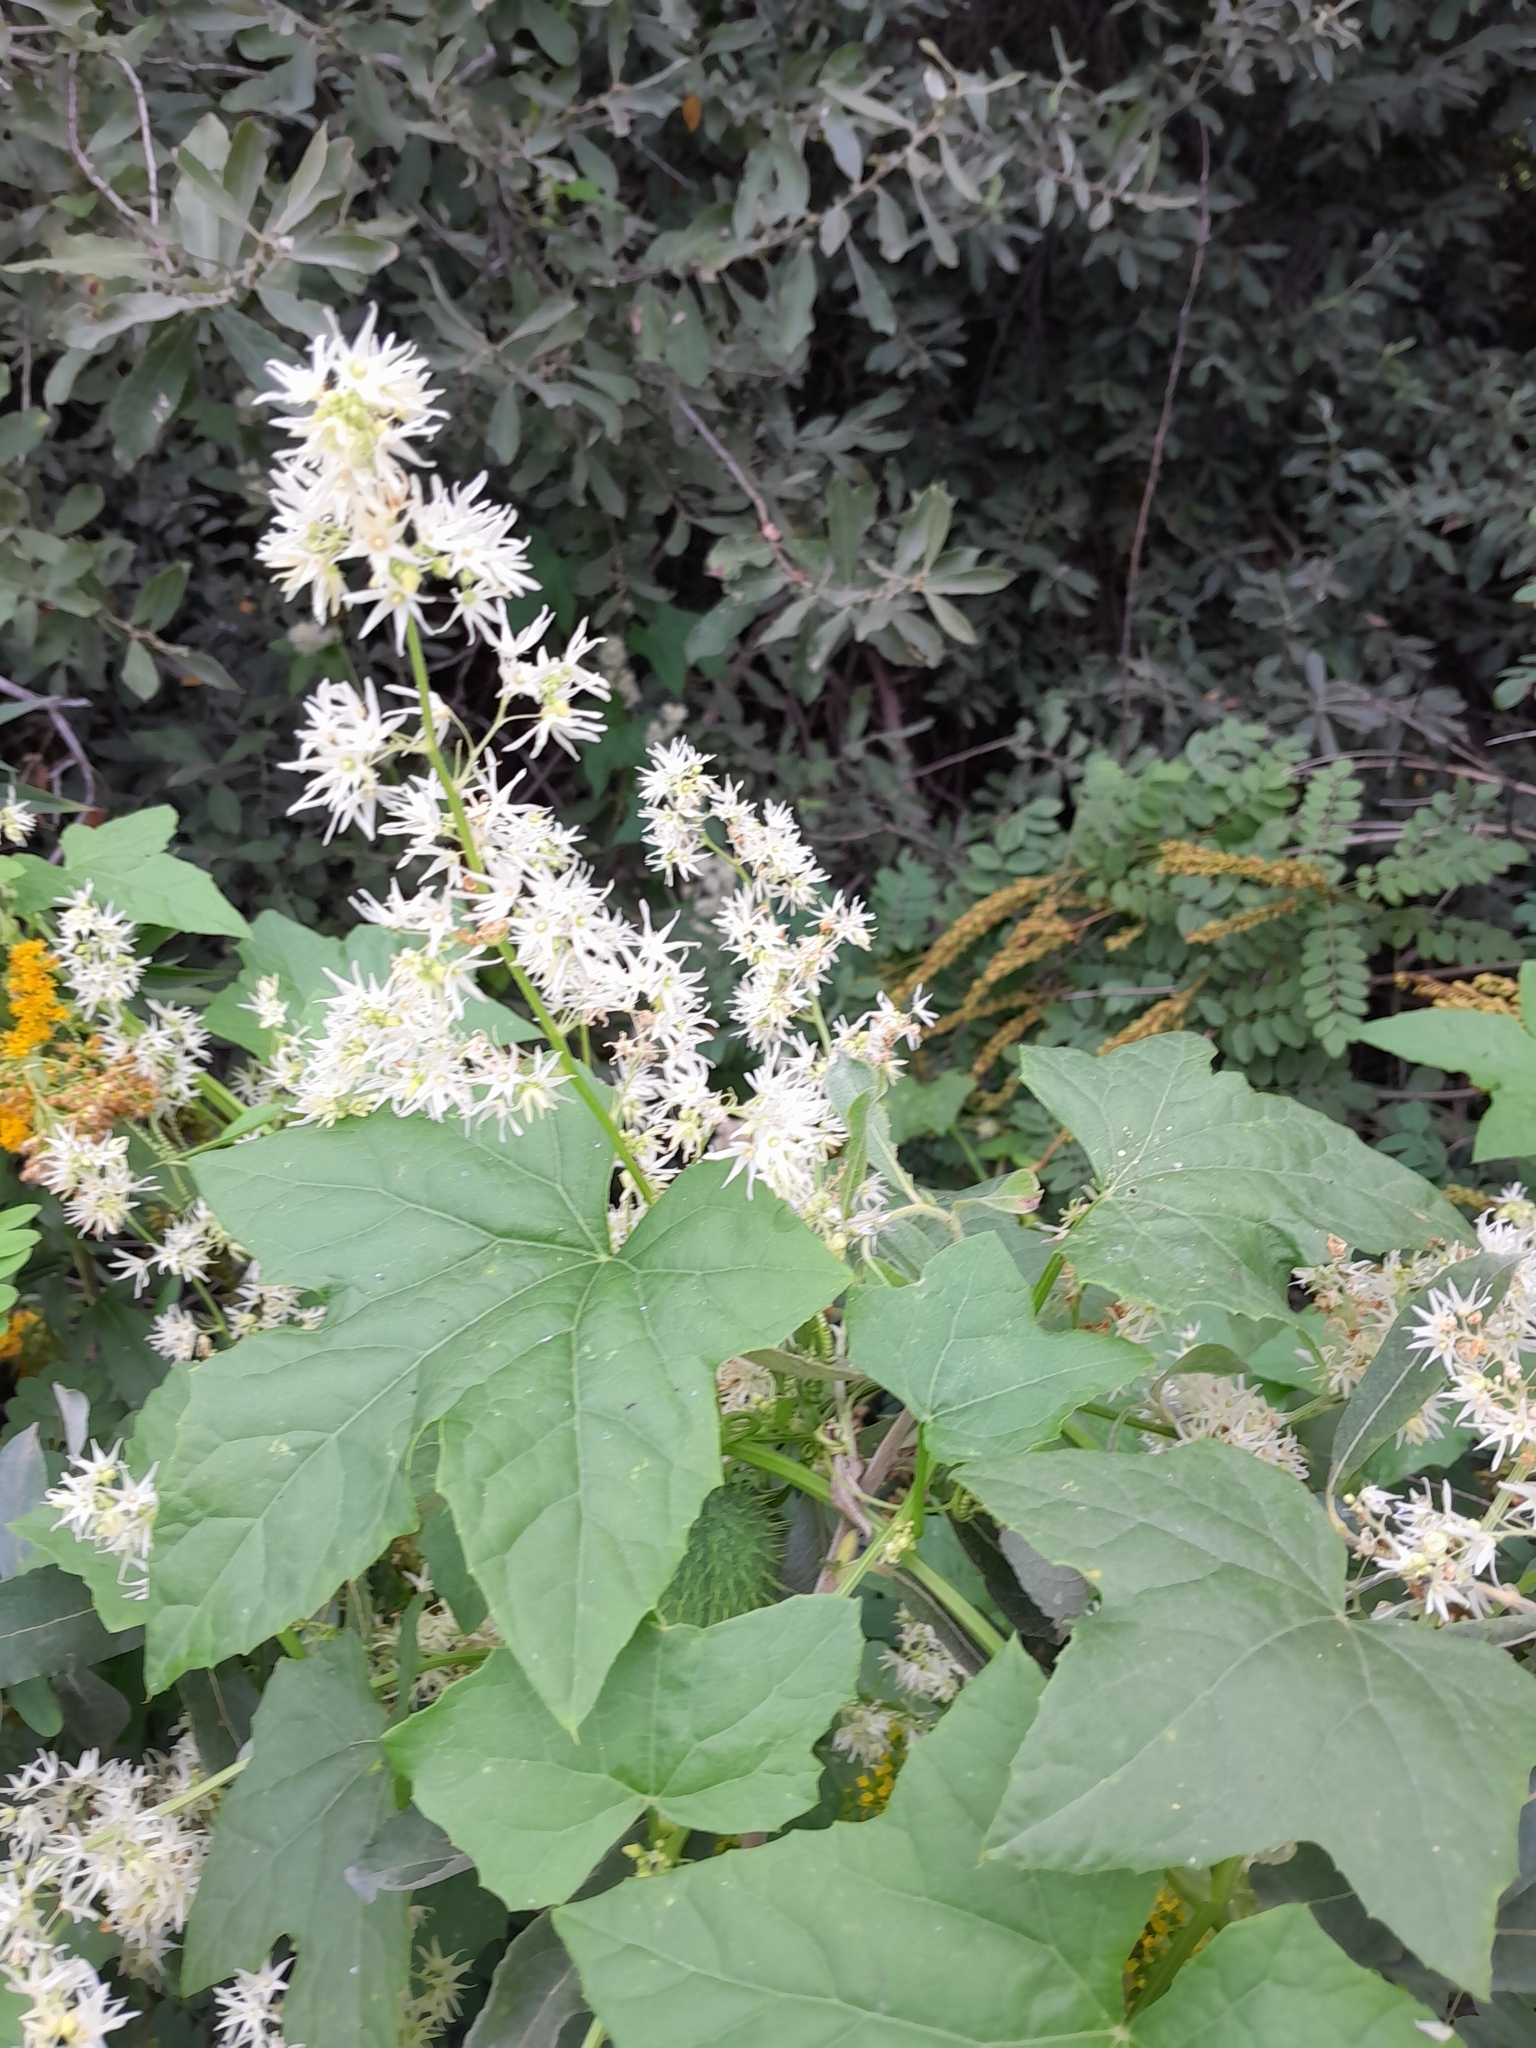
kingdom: Plantae
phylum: Tracheophyta
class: Magnoliopsida
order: Cucurbitales
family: Cucurbitaceae
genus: Echinocystis
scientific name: Echinocystis lobata
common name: Wild cucumber
